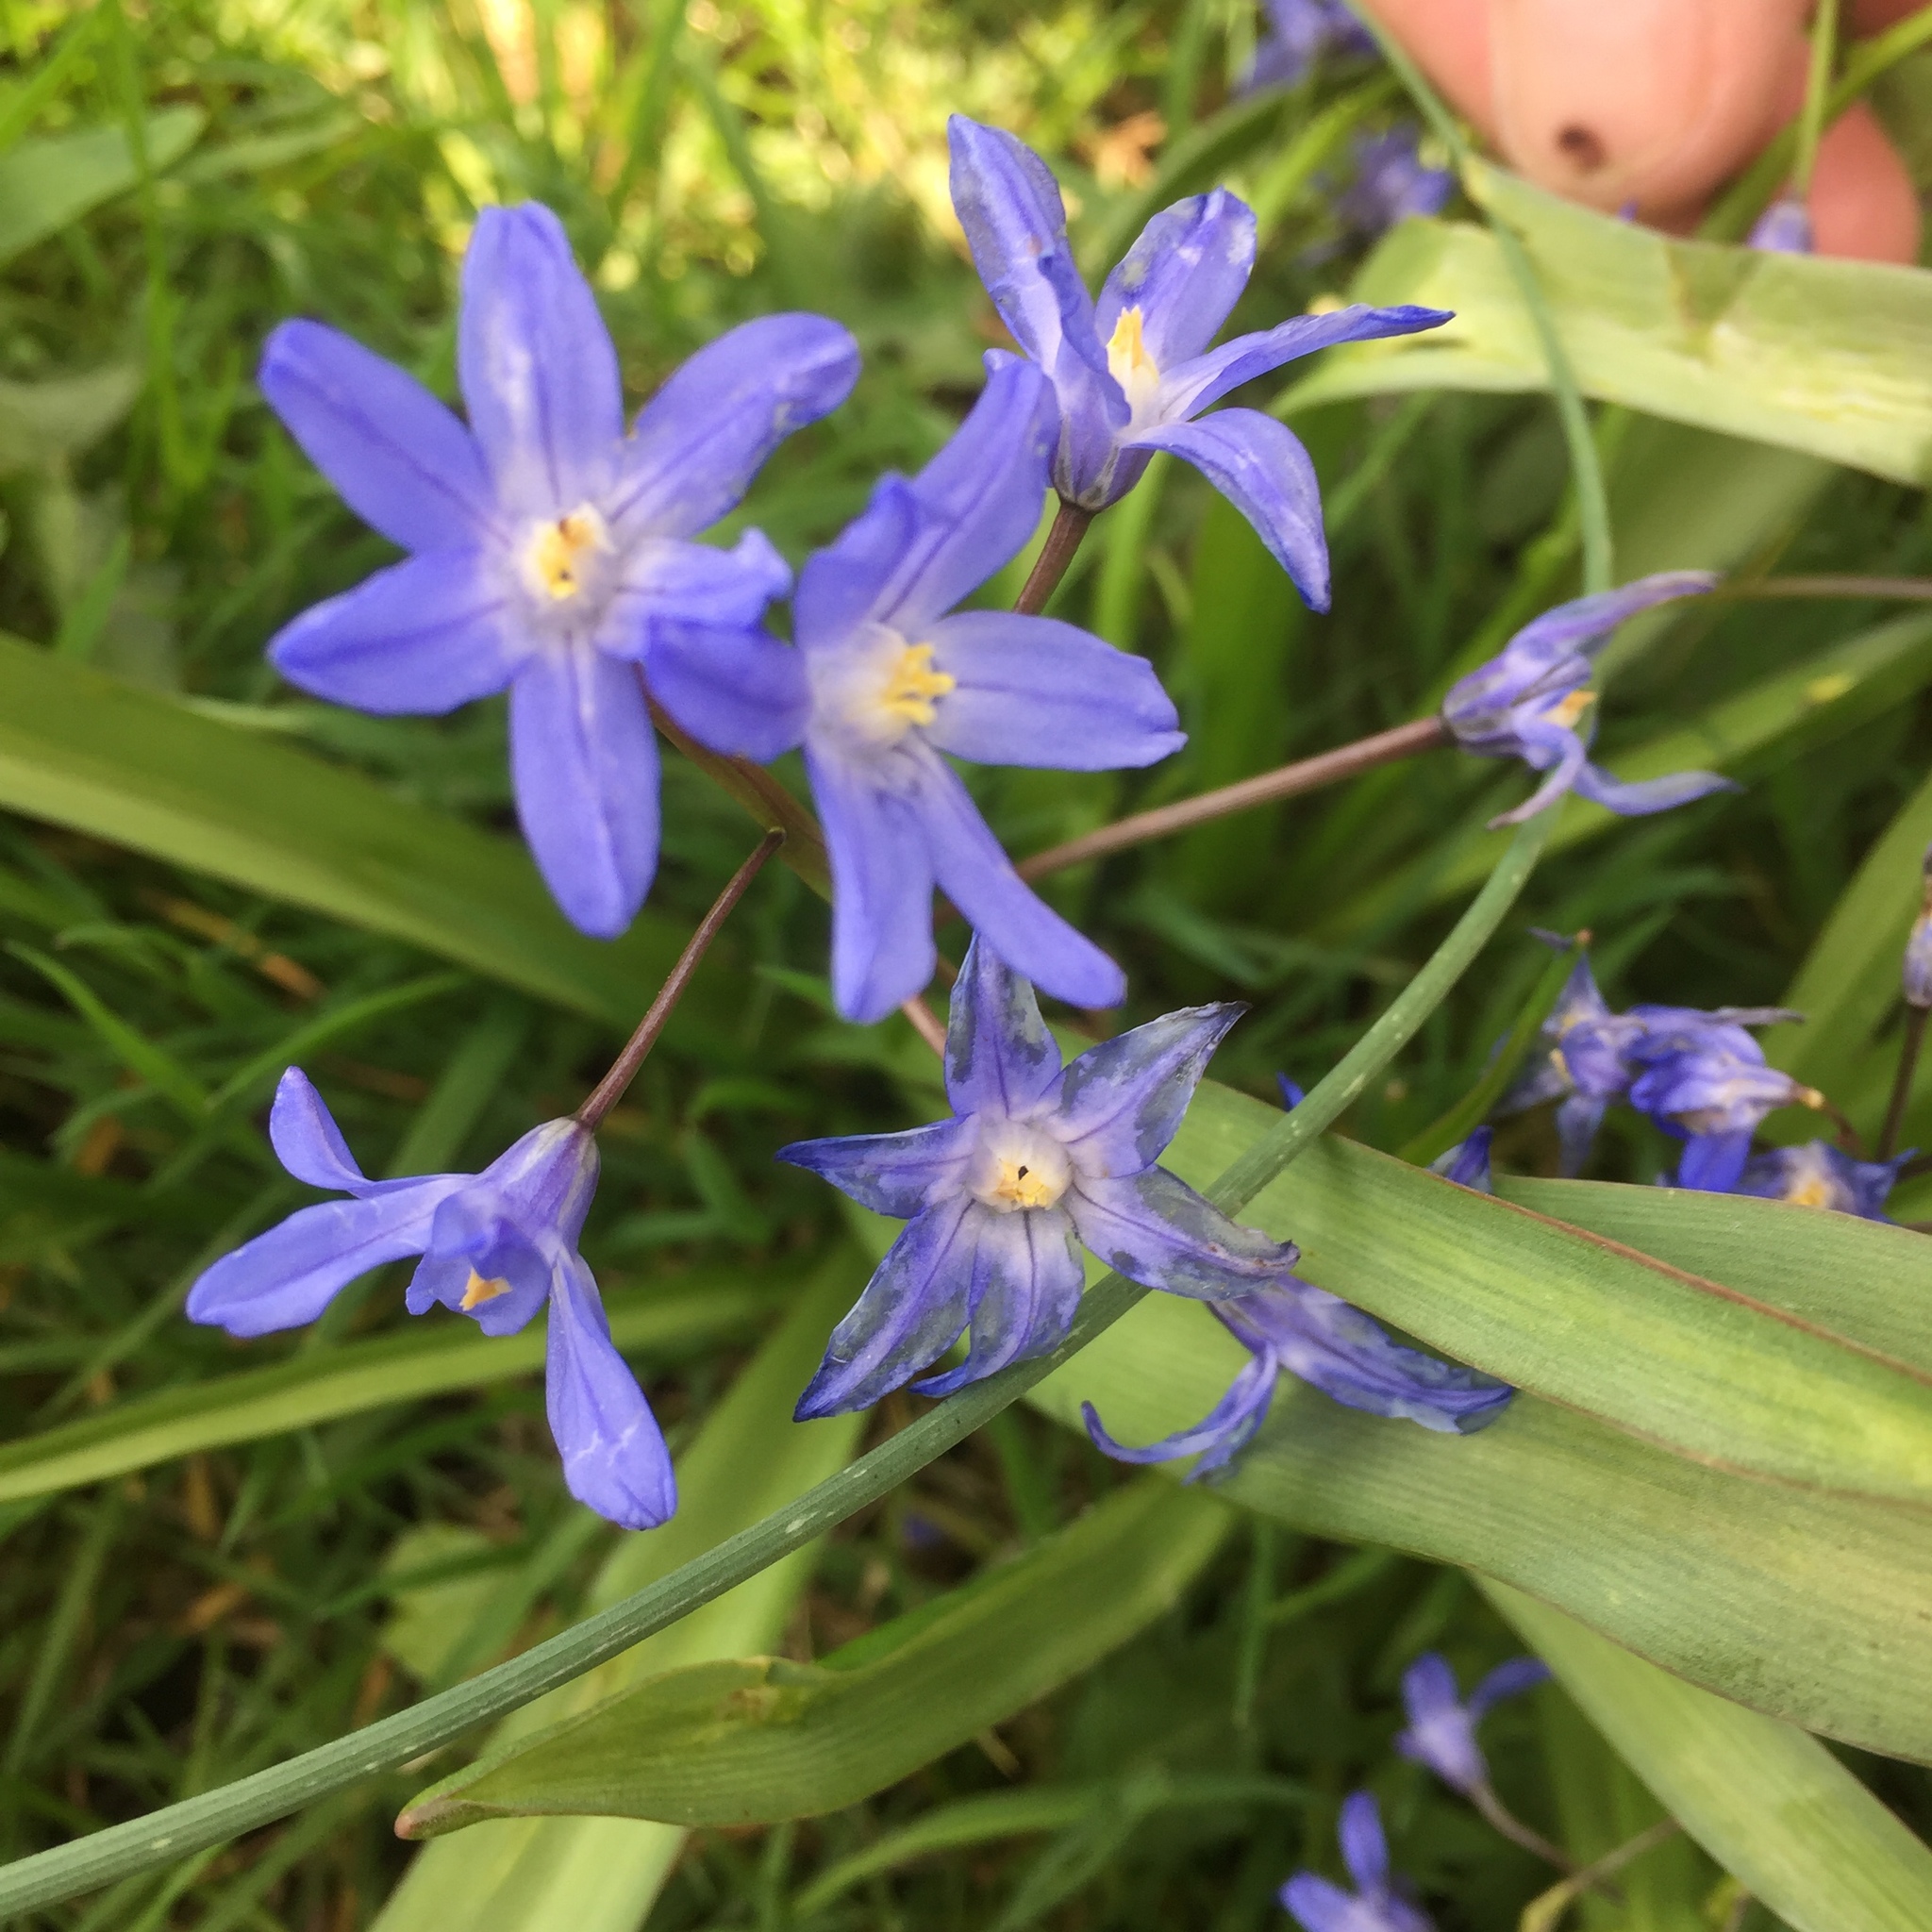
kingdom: Plantae
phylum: Tracheophyta
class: Liliopsida
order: Asparagales
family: Asparagaceae
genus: Scilla
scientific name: Scilla forbesii
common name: Glory-of-the-snow
